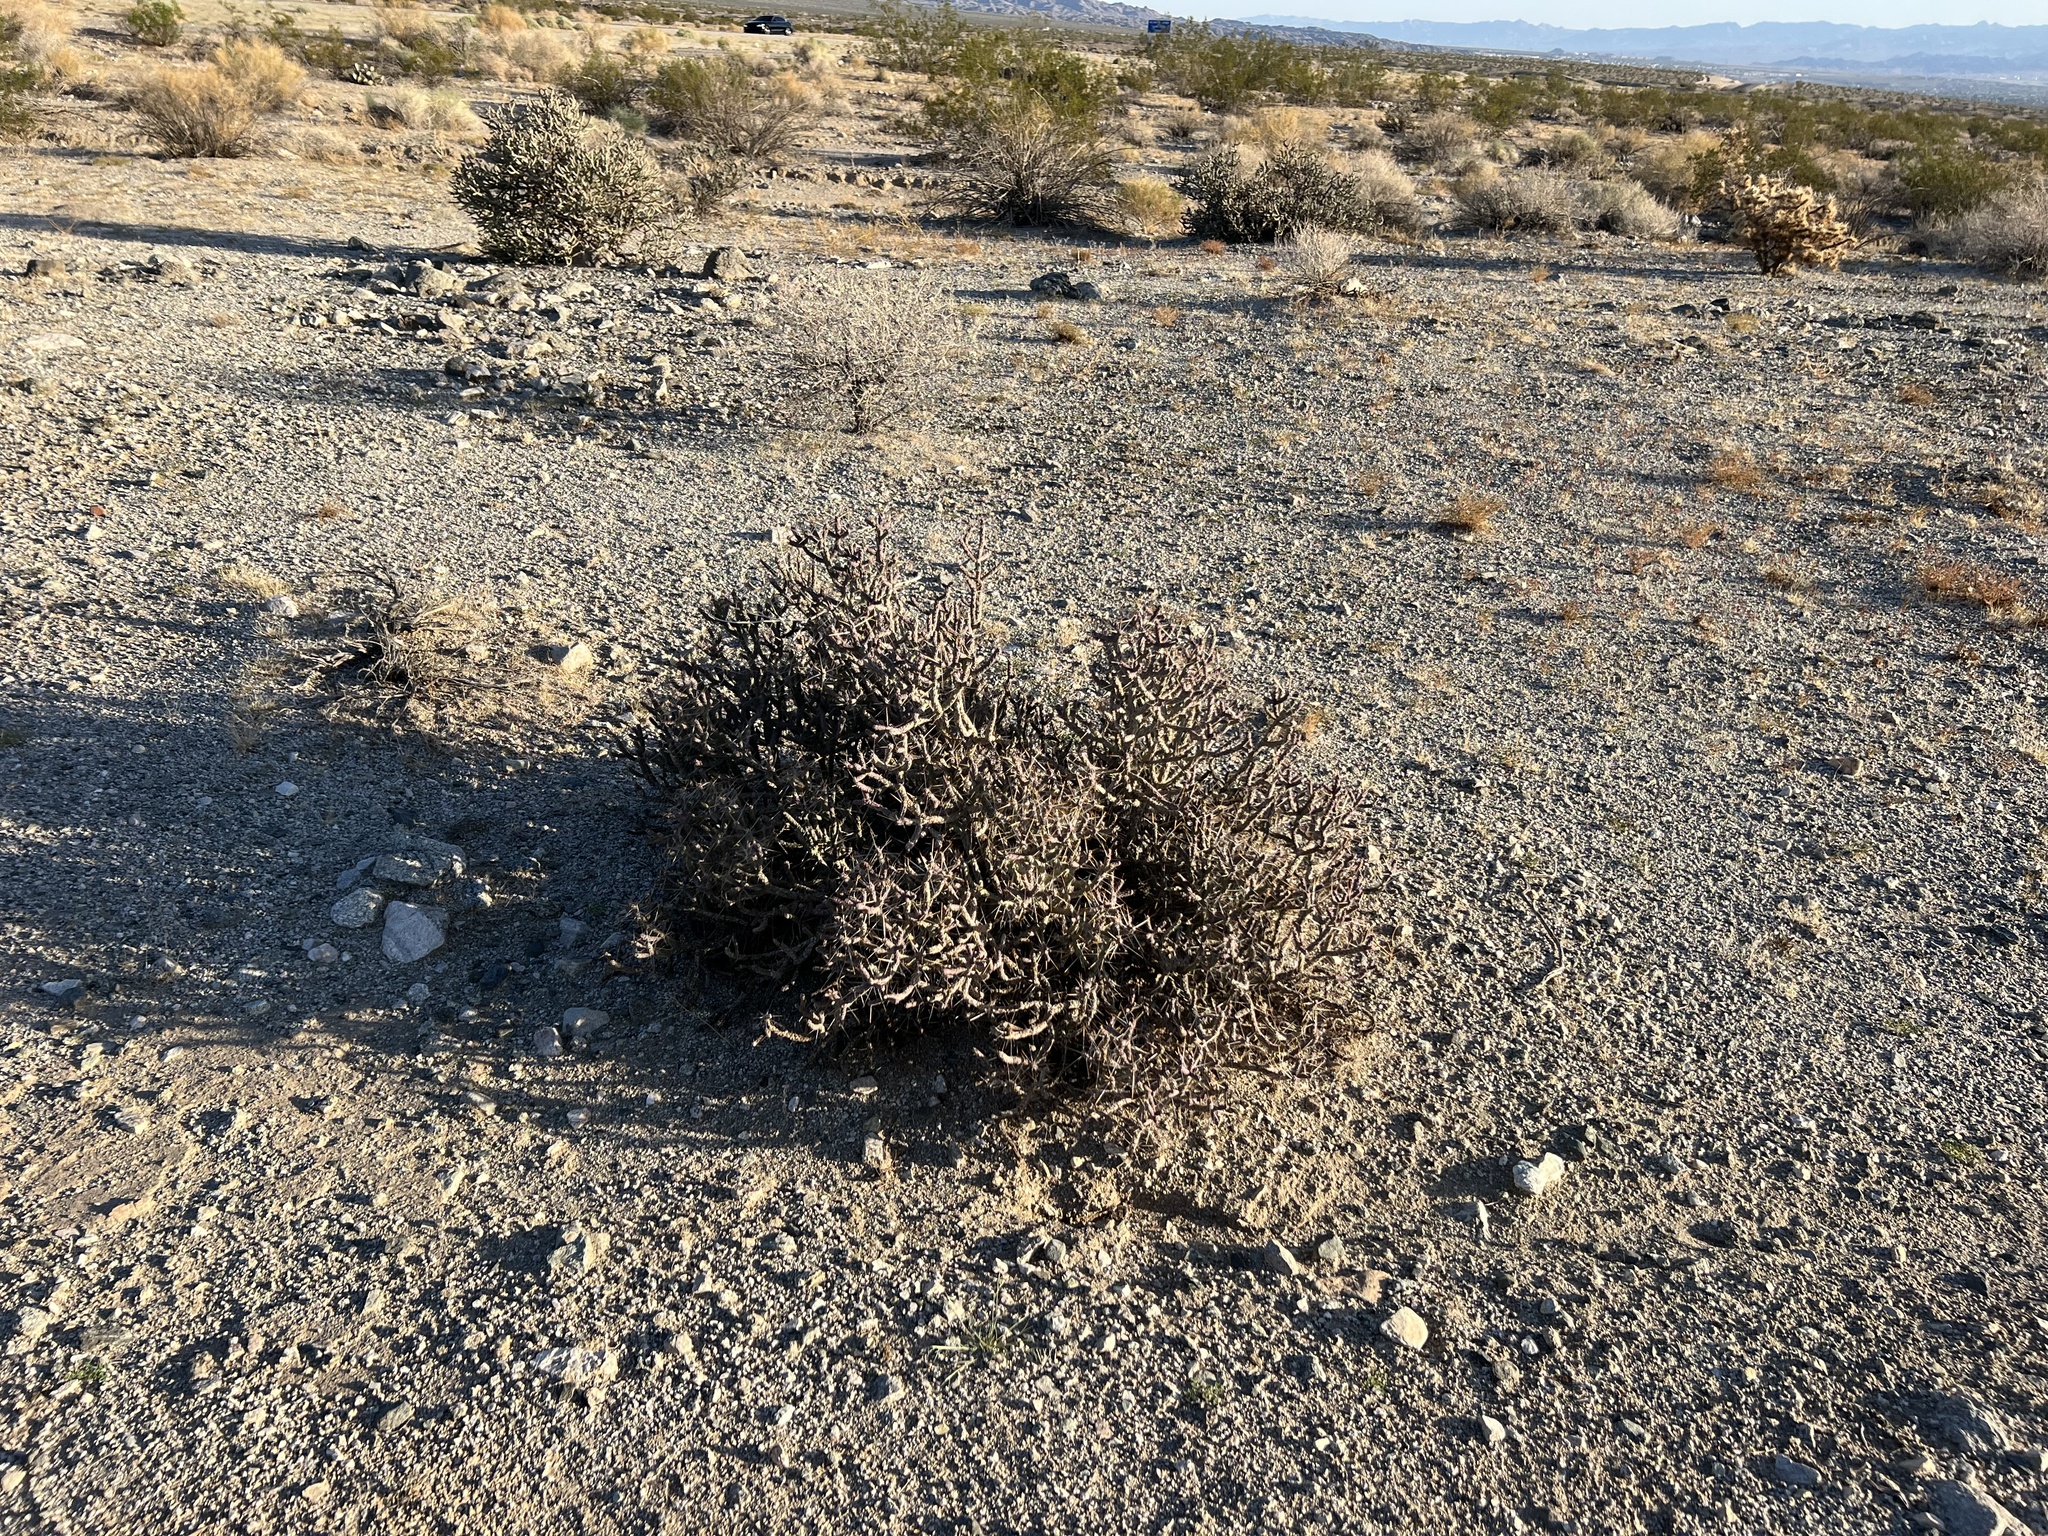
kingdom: Plantae
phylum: Tracheophyta
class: Magnoliopsida
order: Caryophyllales
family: Cactaceae
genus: Cylindropuntia
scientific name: Cylindropuntia ramosissima
